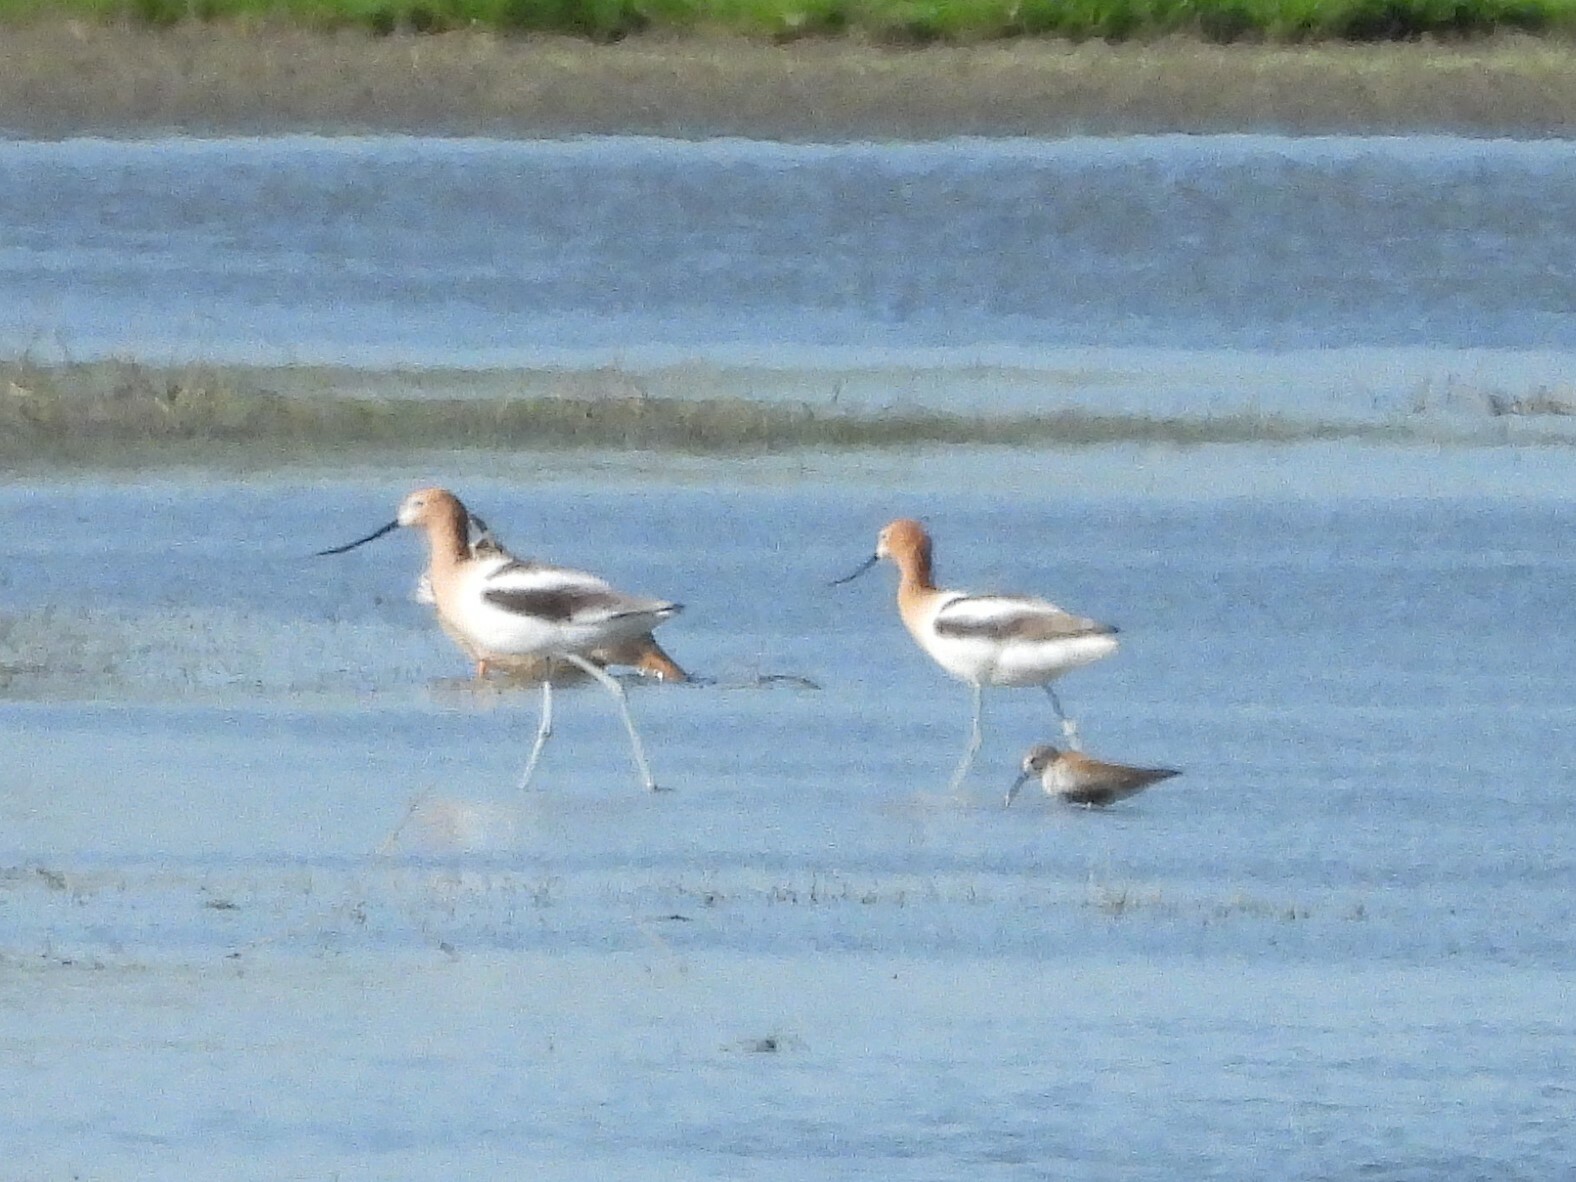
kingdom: Animalia
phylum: Chordata
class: Aves
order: Charadriiformes
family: Recurvirostridae
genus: Recurvirostra
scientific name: Recurvirostra americana
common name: American avocet
